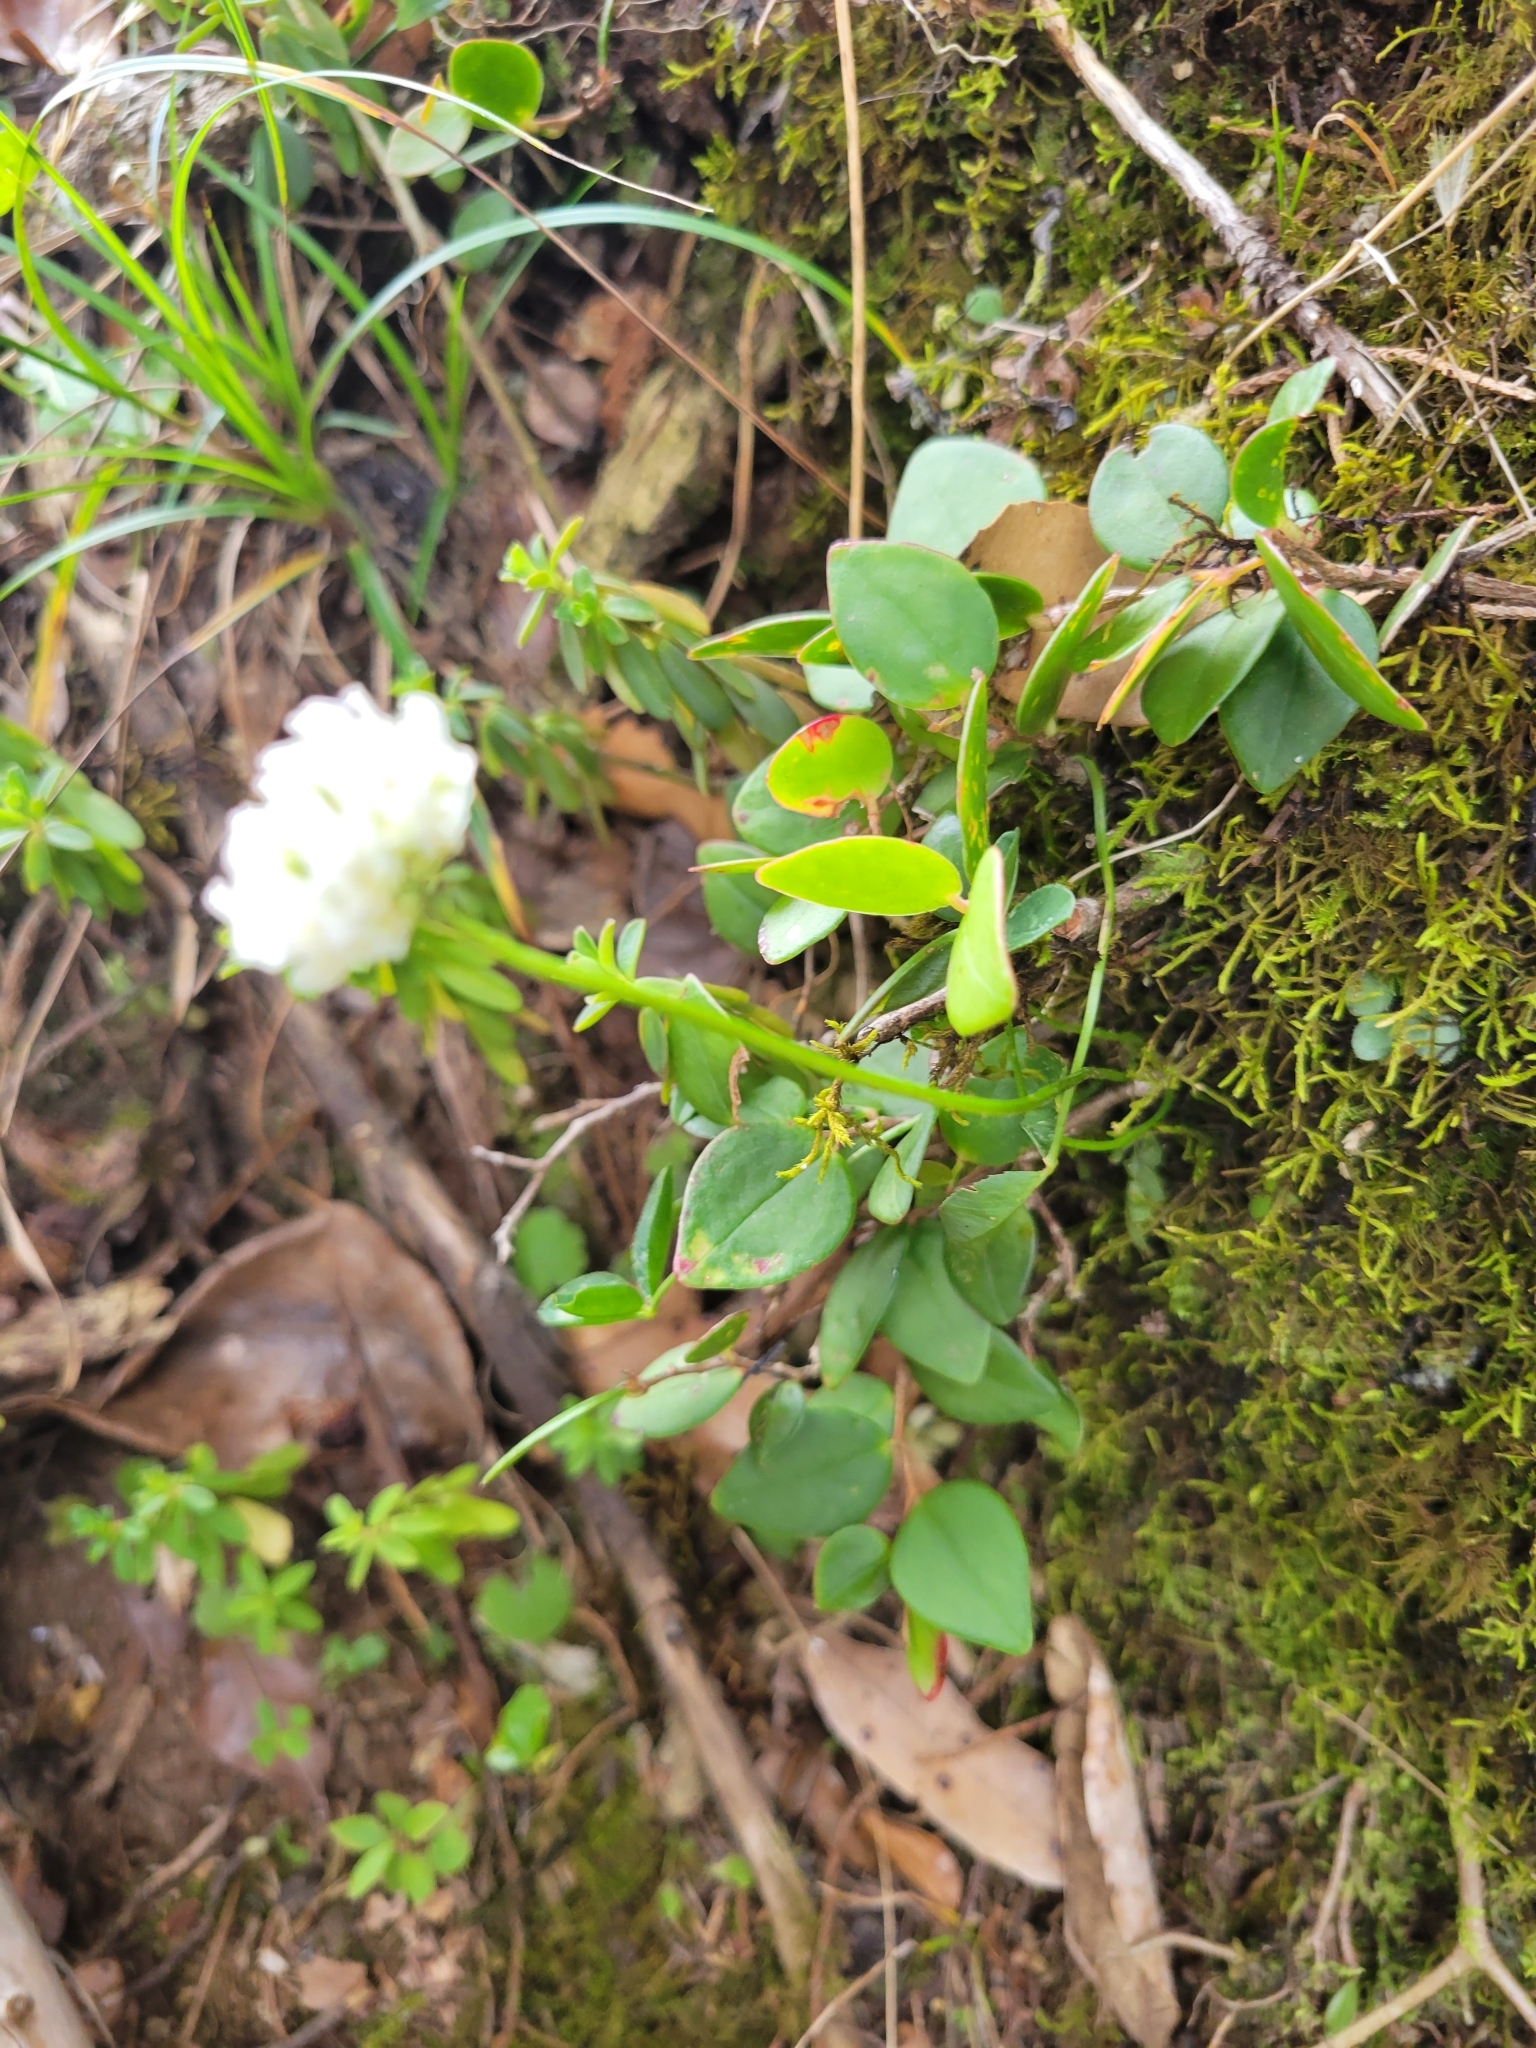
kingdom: Plantae
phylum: Tracheophyta
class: Magnoliopsida
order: Fabales
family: Fabaceae
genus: Trifolium
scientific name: Trifolium repens
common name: White clover
